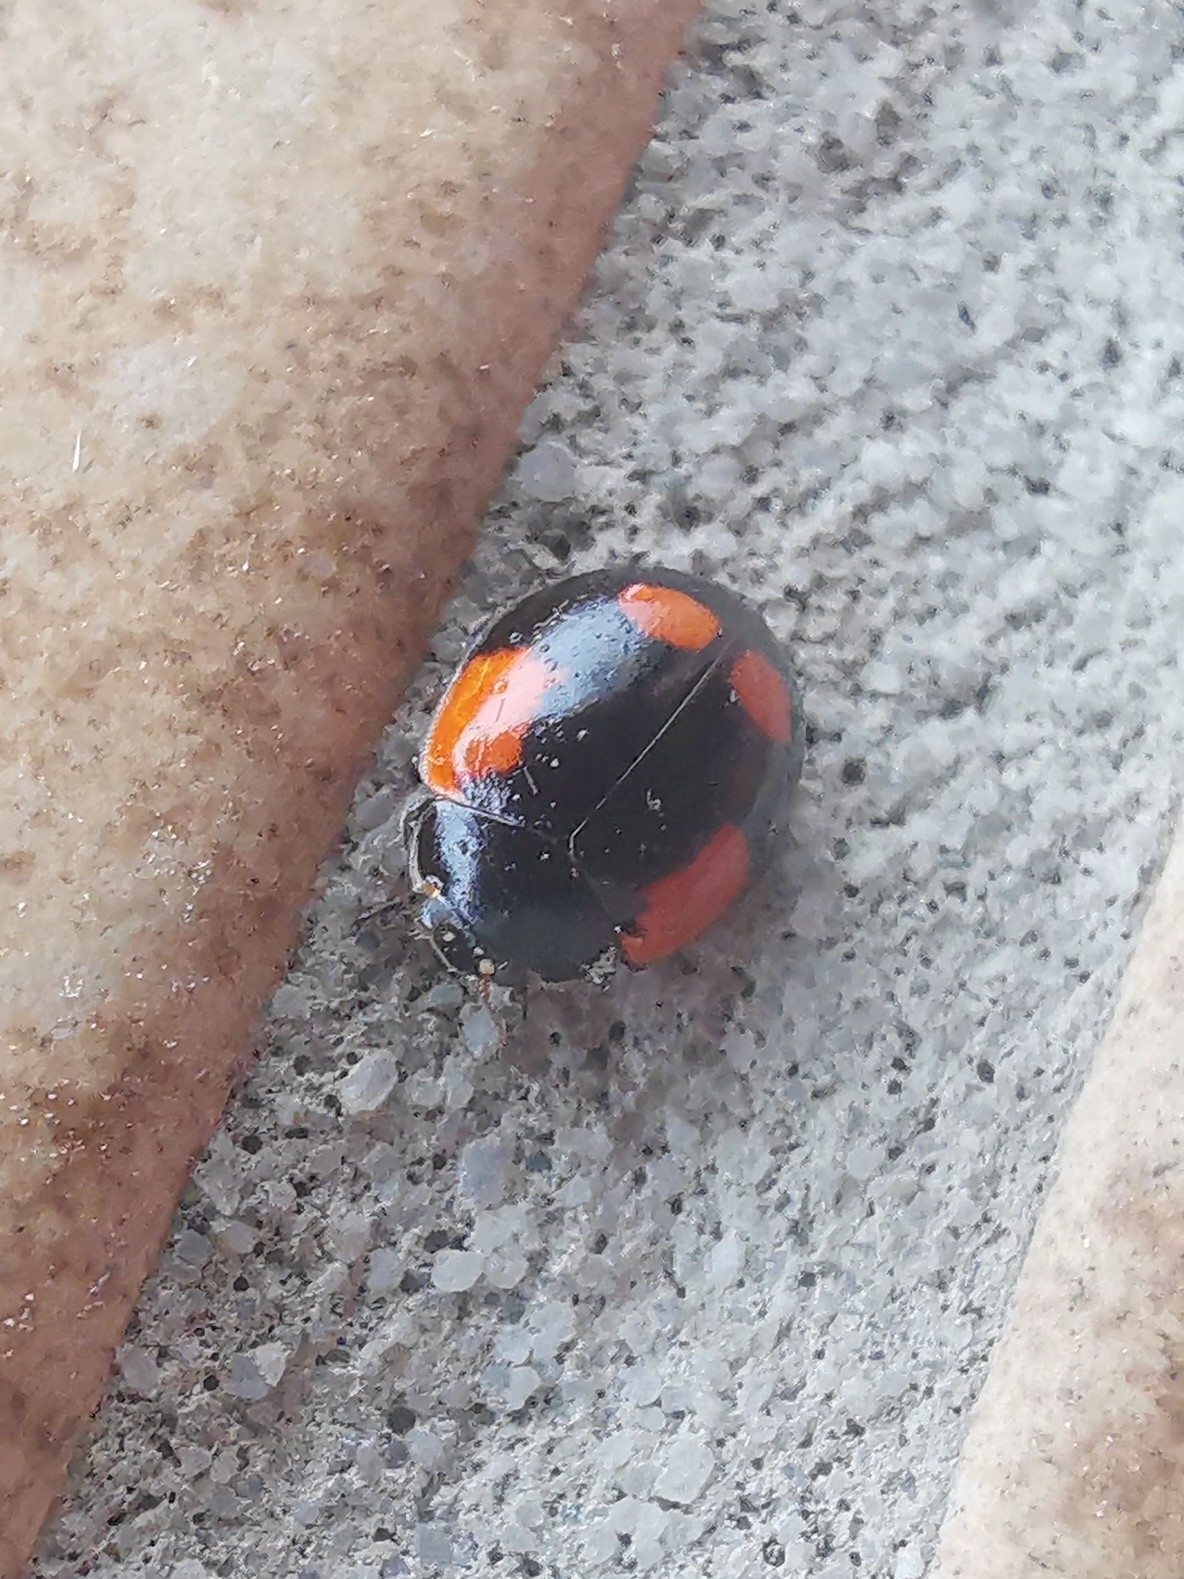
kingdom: Animalia
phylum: Arthropoda
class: Insecta
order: Coleoptera
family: Coccinellidae
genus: Adalia
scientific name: Adalia bipunctata
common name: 2-spot ladybird
